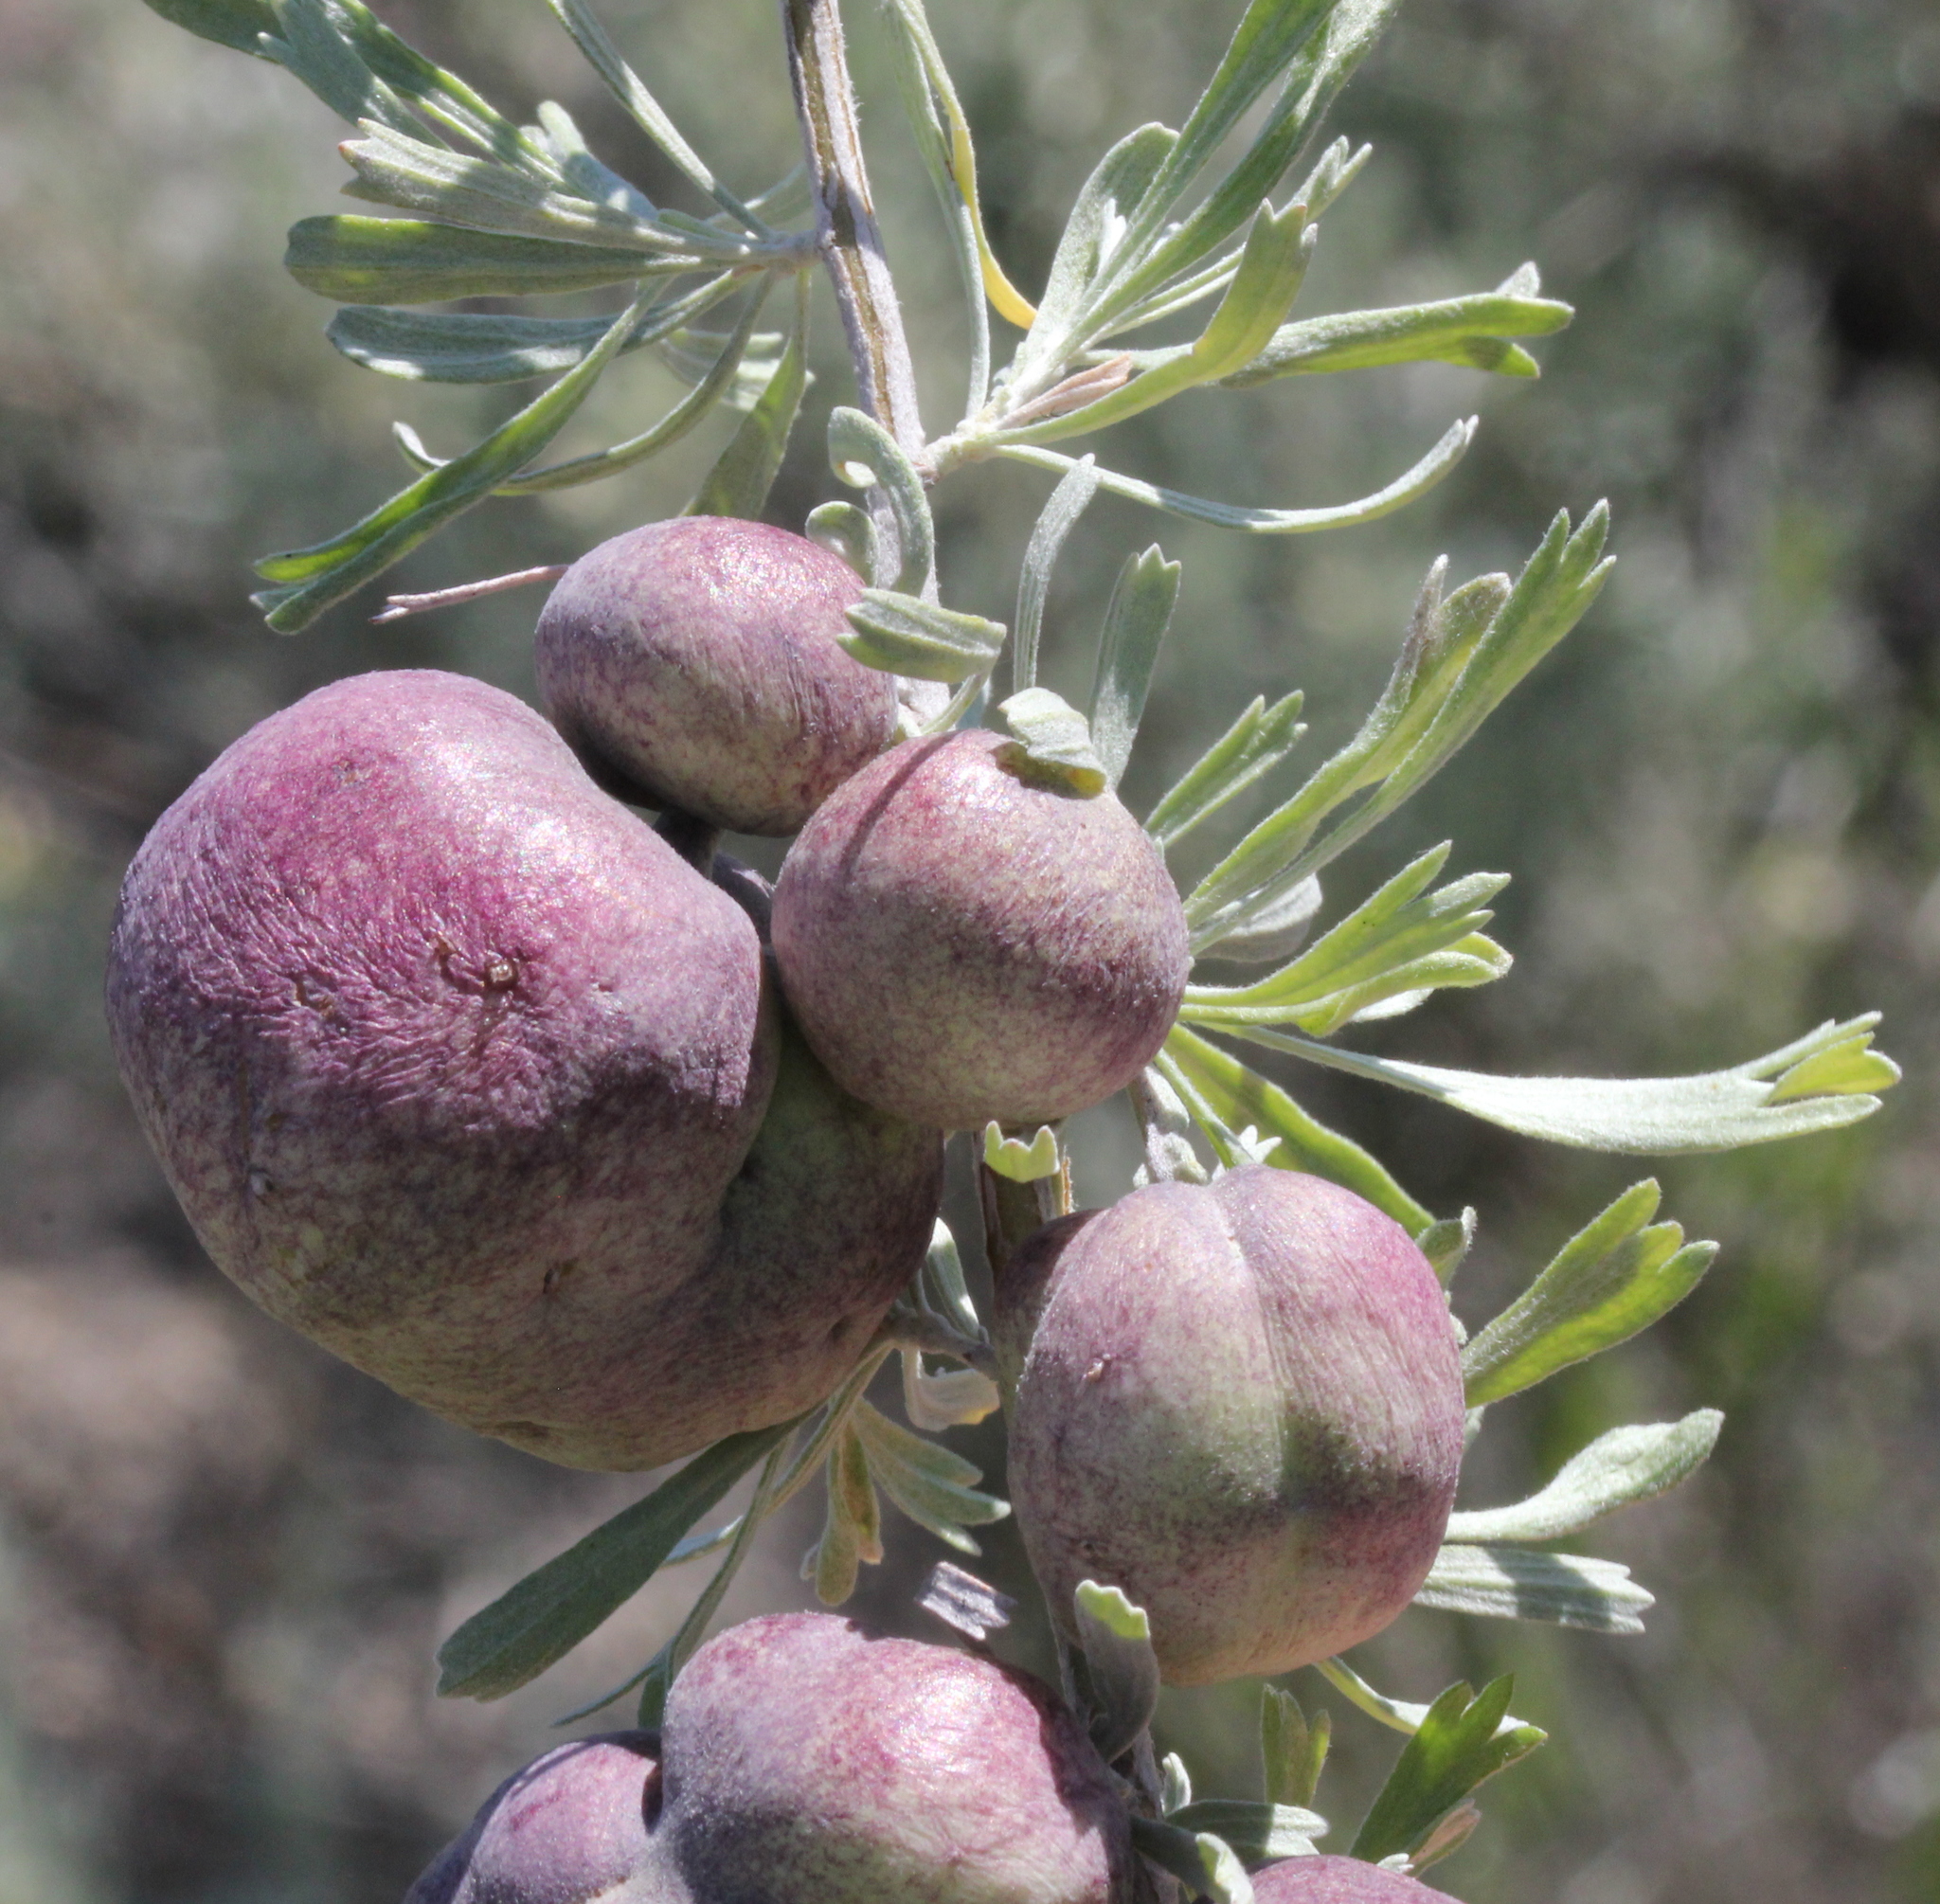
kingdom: Animalia
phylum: Arthropoda
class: Insecta
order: Diptera
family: Cecidomyiidae
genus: Rhopalomyia
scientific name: Rhopalomyia pomum
